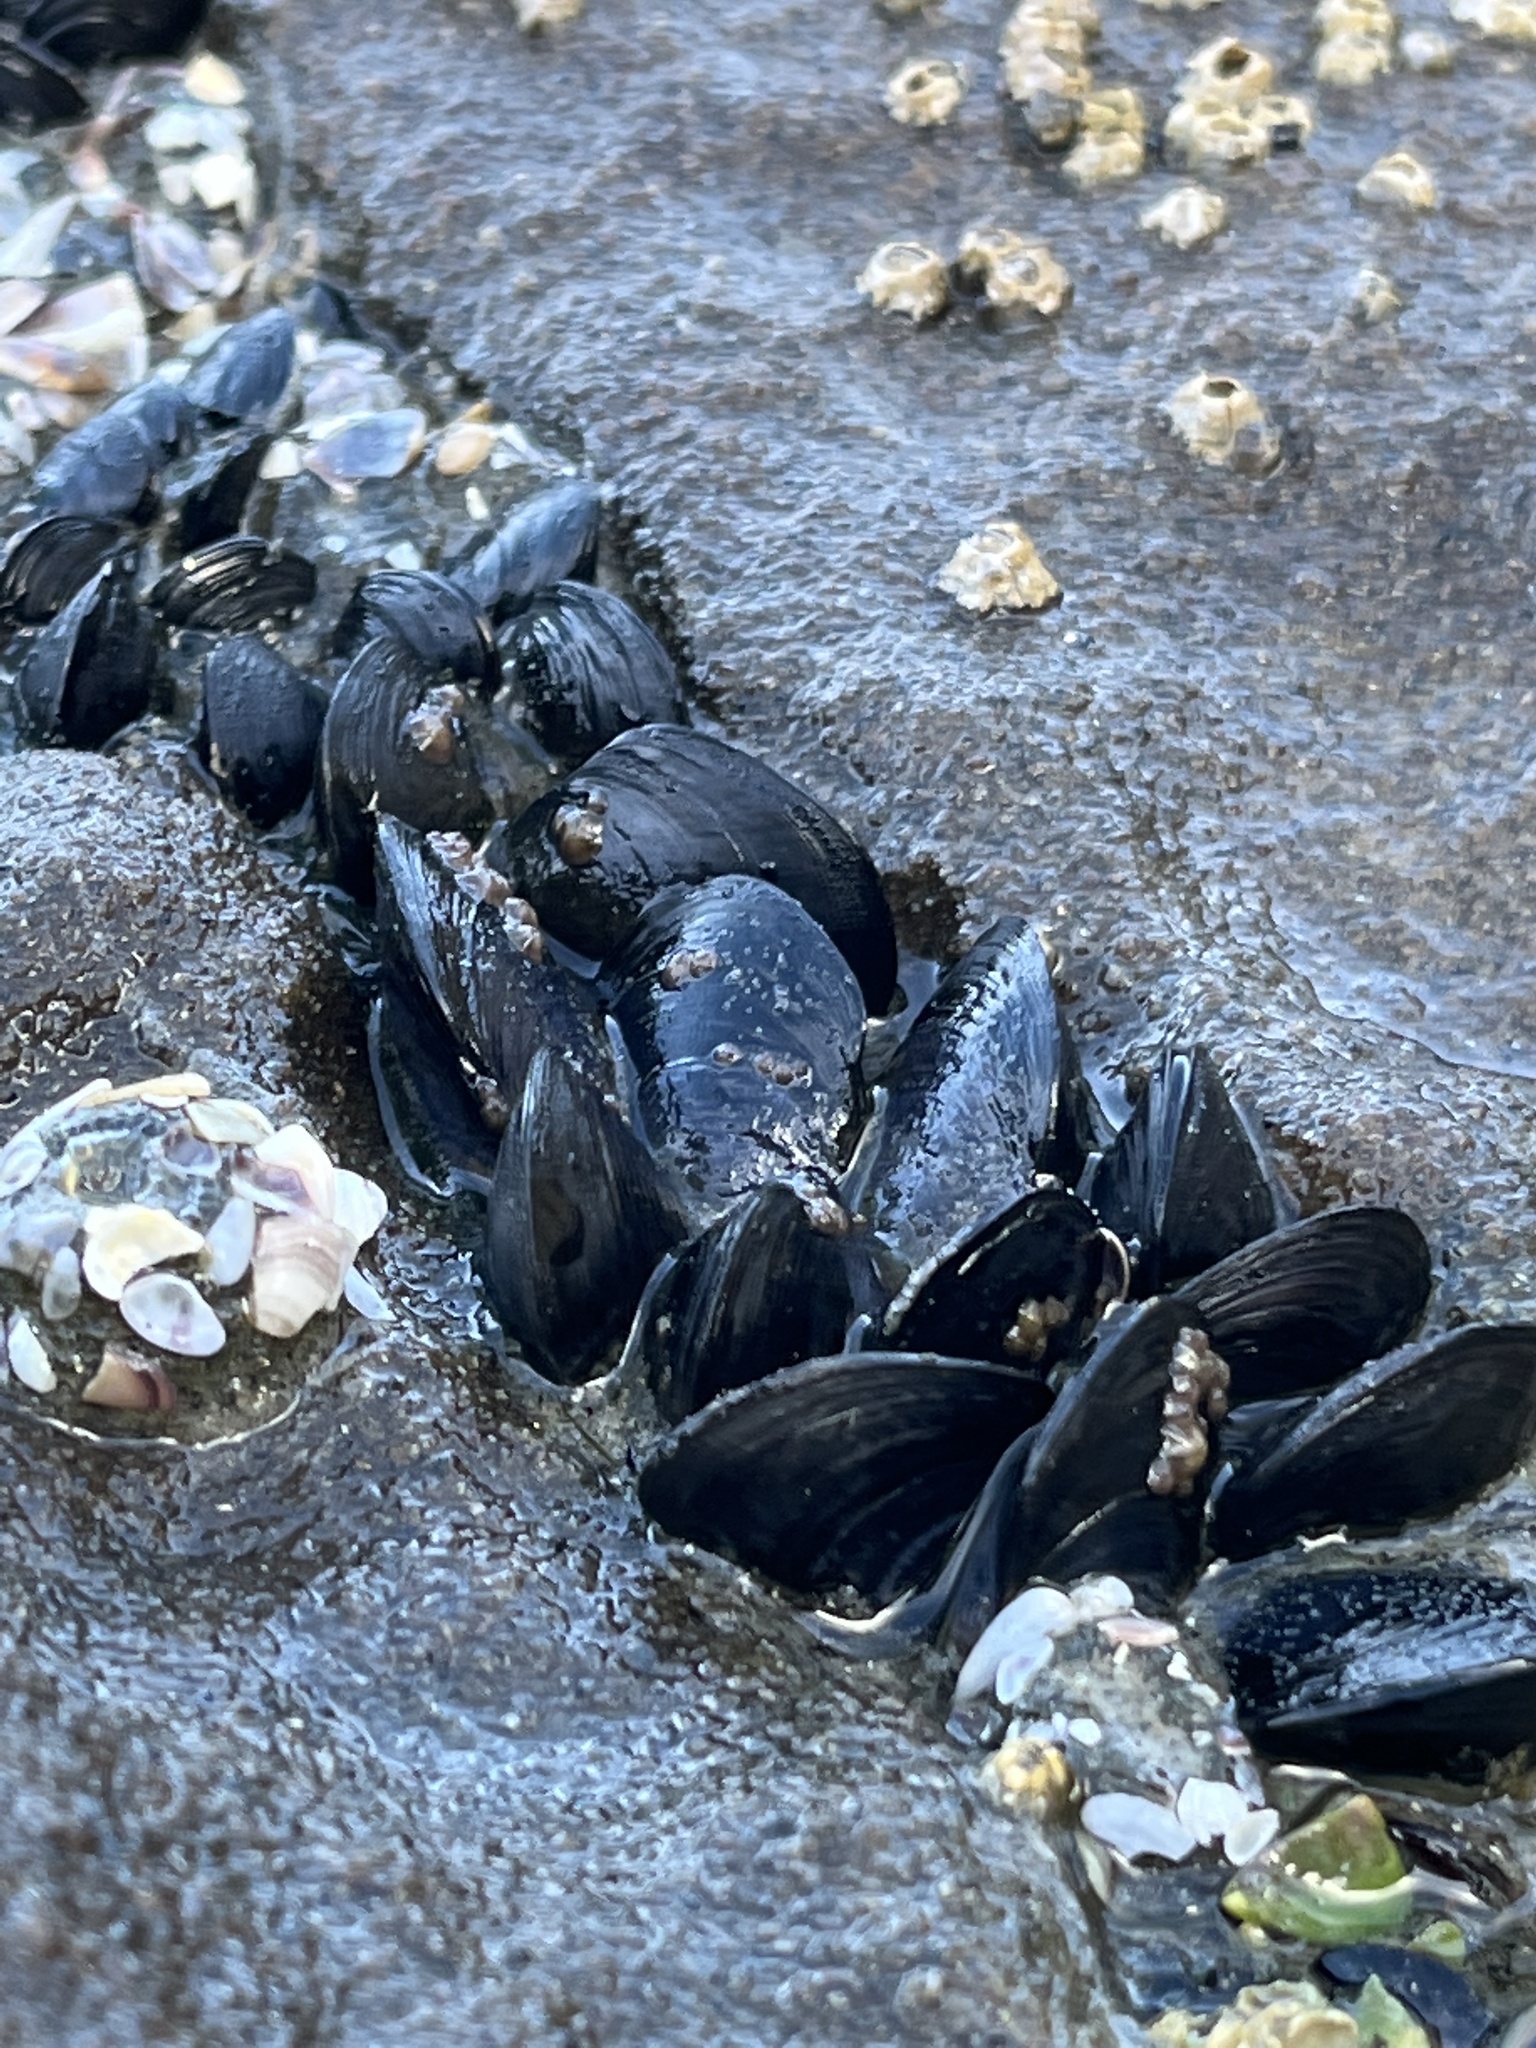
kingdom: Animalia
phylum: Mollusca
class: Bivalvia
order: Mytilida
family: Mytilidae
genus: Mytilus
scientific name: Mytilus galloprovincialis
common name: Mediterranean mussel
